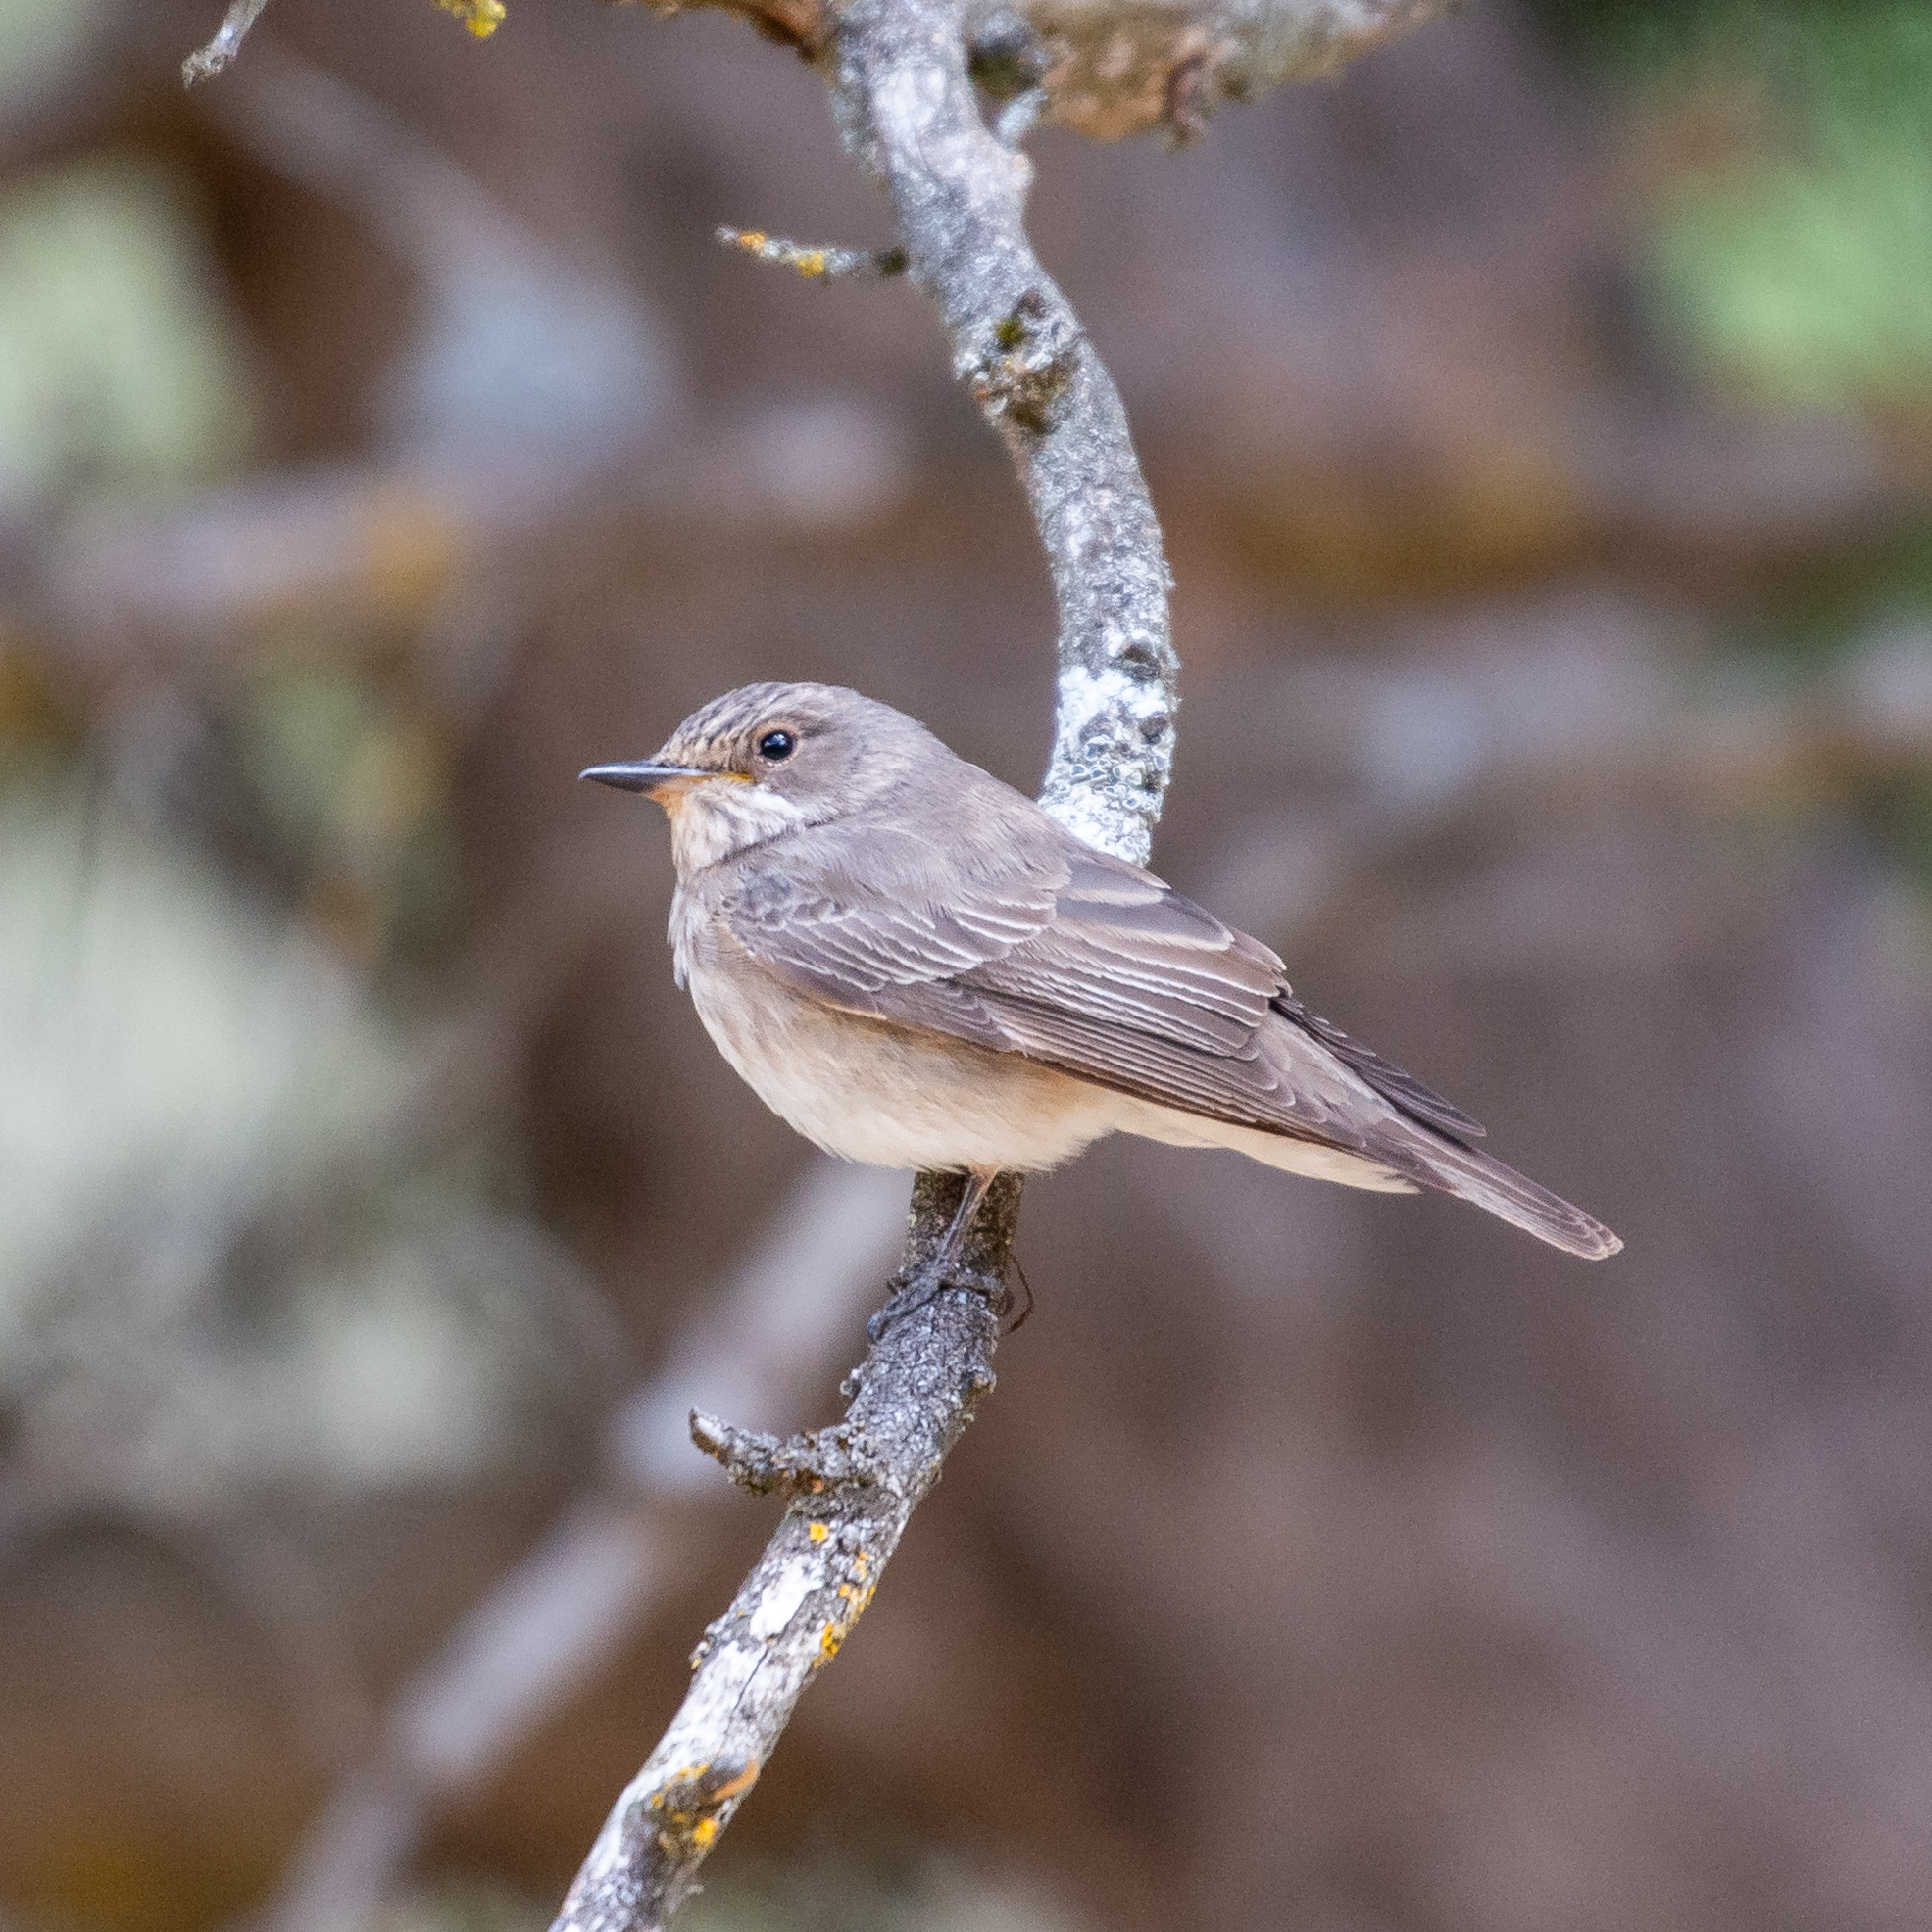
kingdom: Animalia
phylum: Chordata
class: Aves
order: Passeriformes
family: Muscicapidae
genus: Muscicapa
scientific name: Muscicapa striata
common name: Spotted flycatcher
